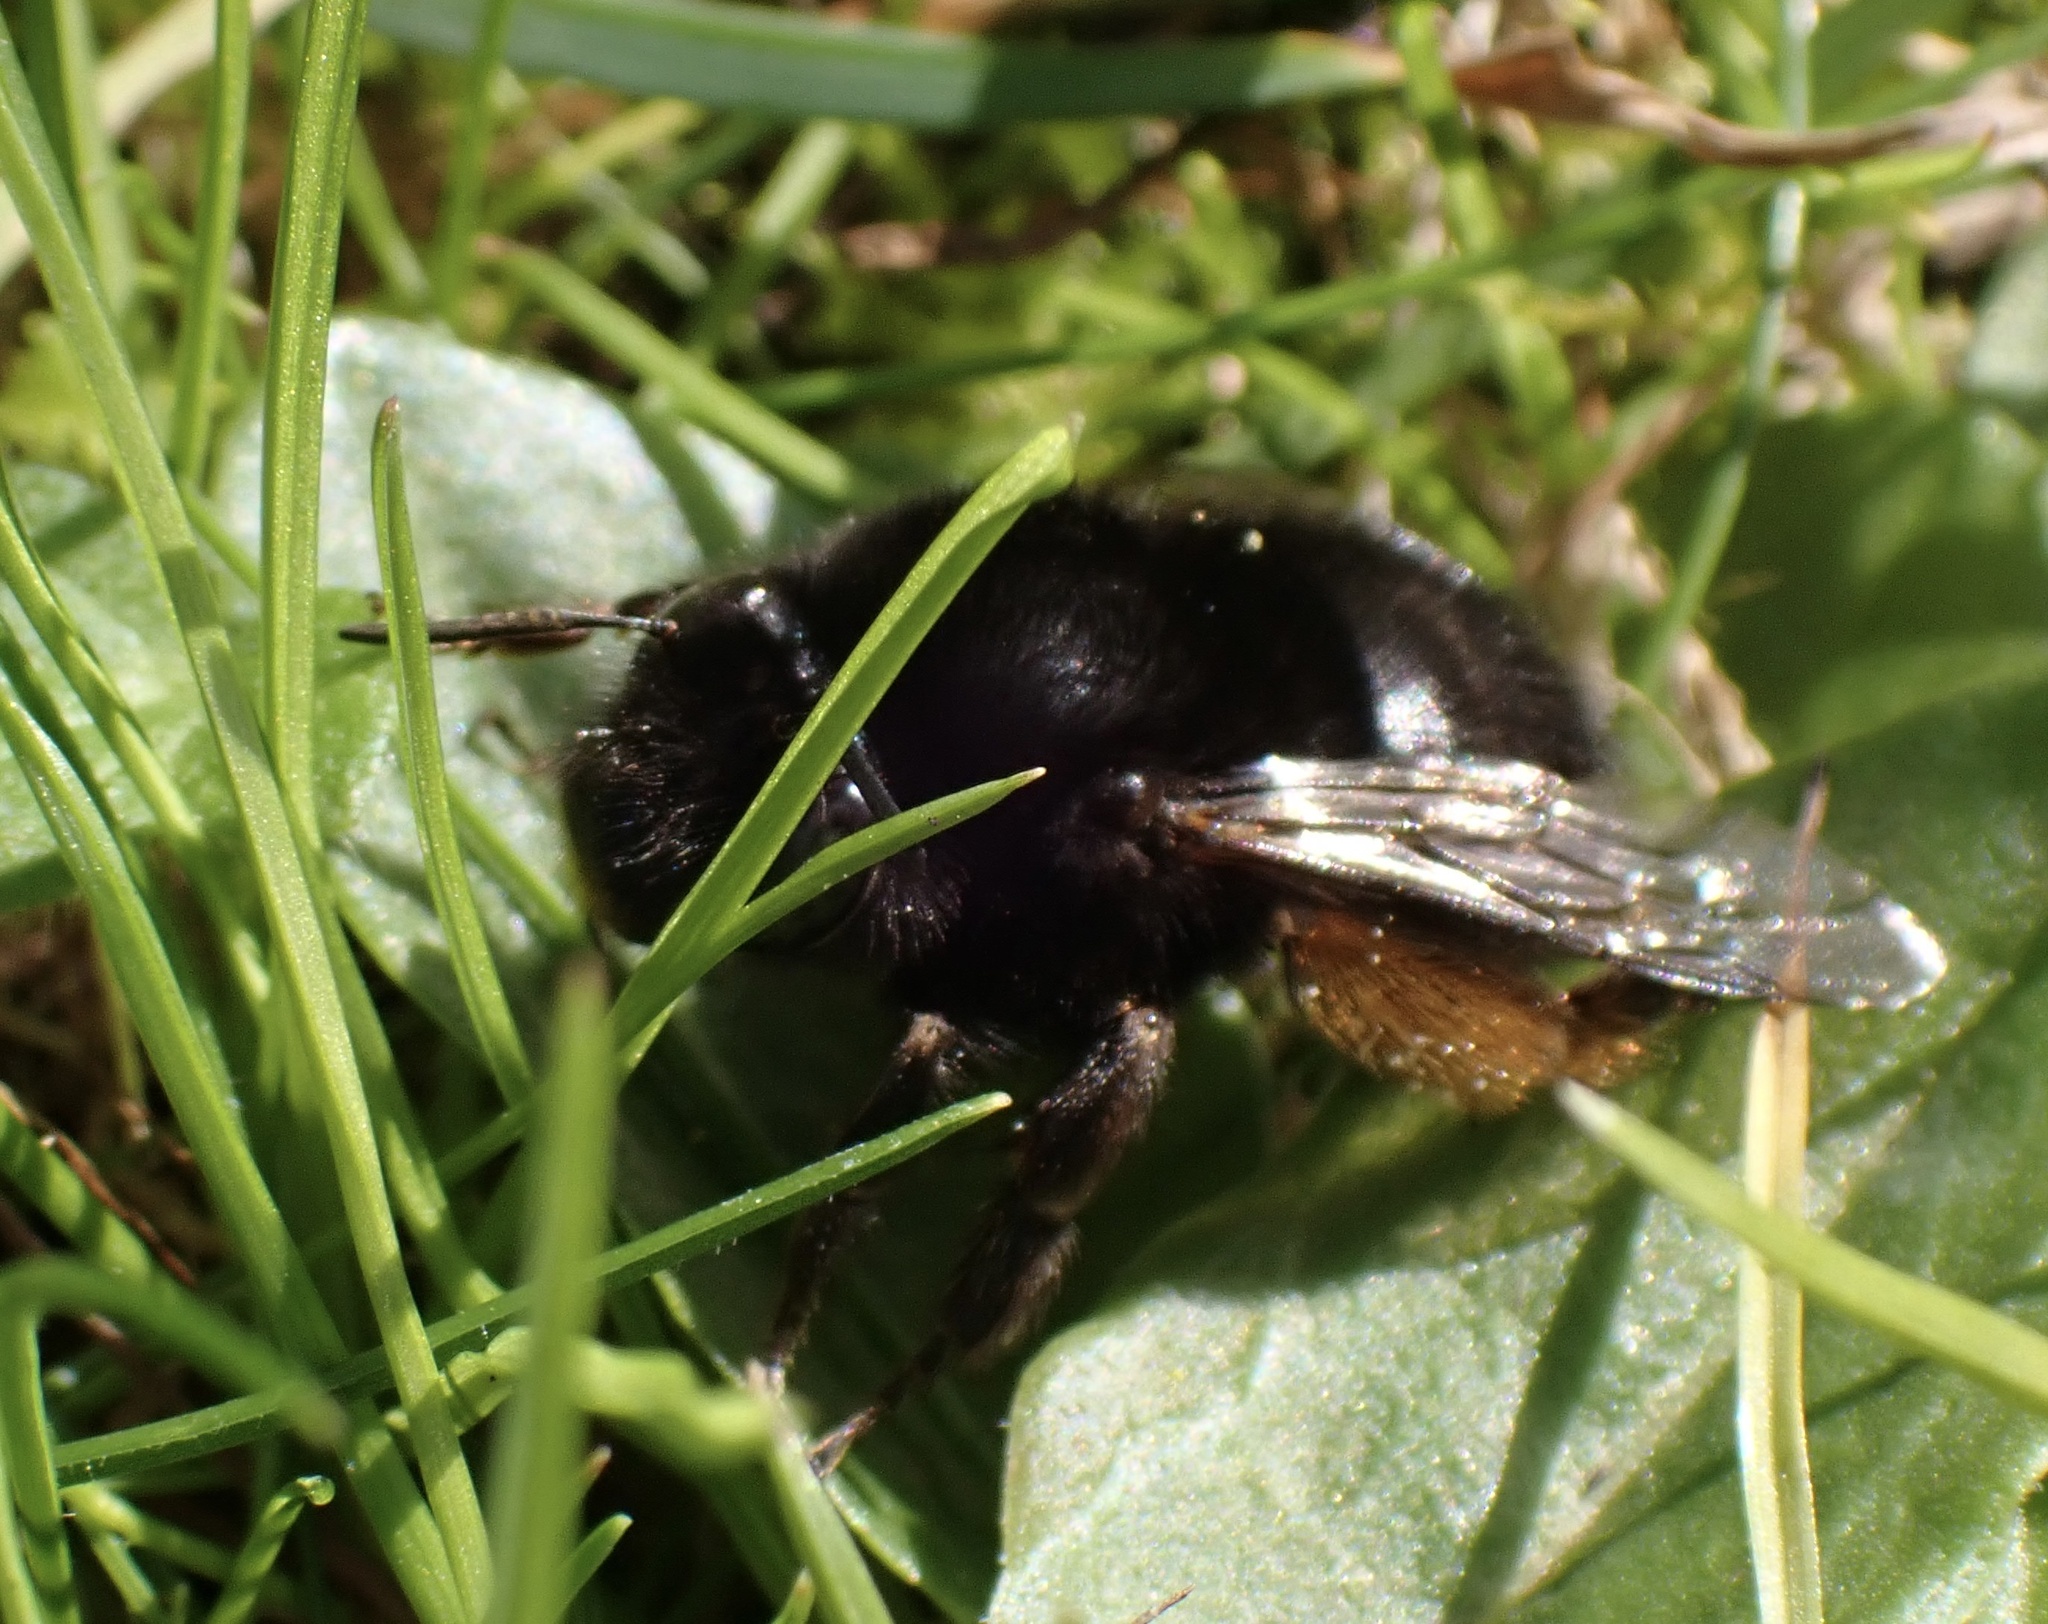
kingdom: Animalia
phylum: Arthropoda
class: Insecta
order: Hymenoptera
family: Apidae
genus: Anthophora
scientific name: Anthophora plumipes
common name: Hairy-footed flower bee
